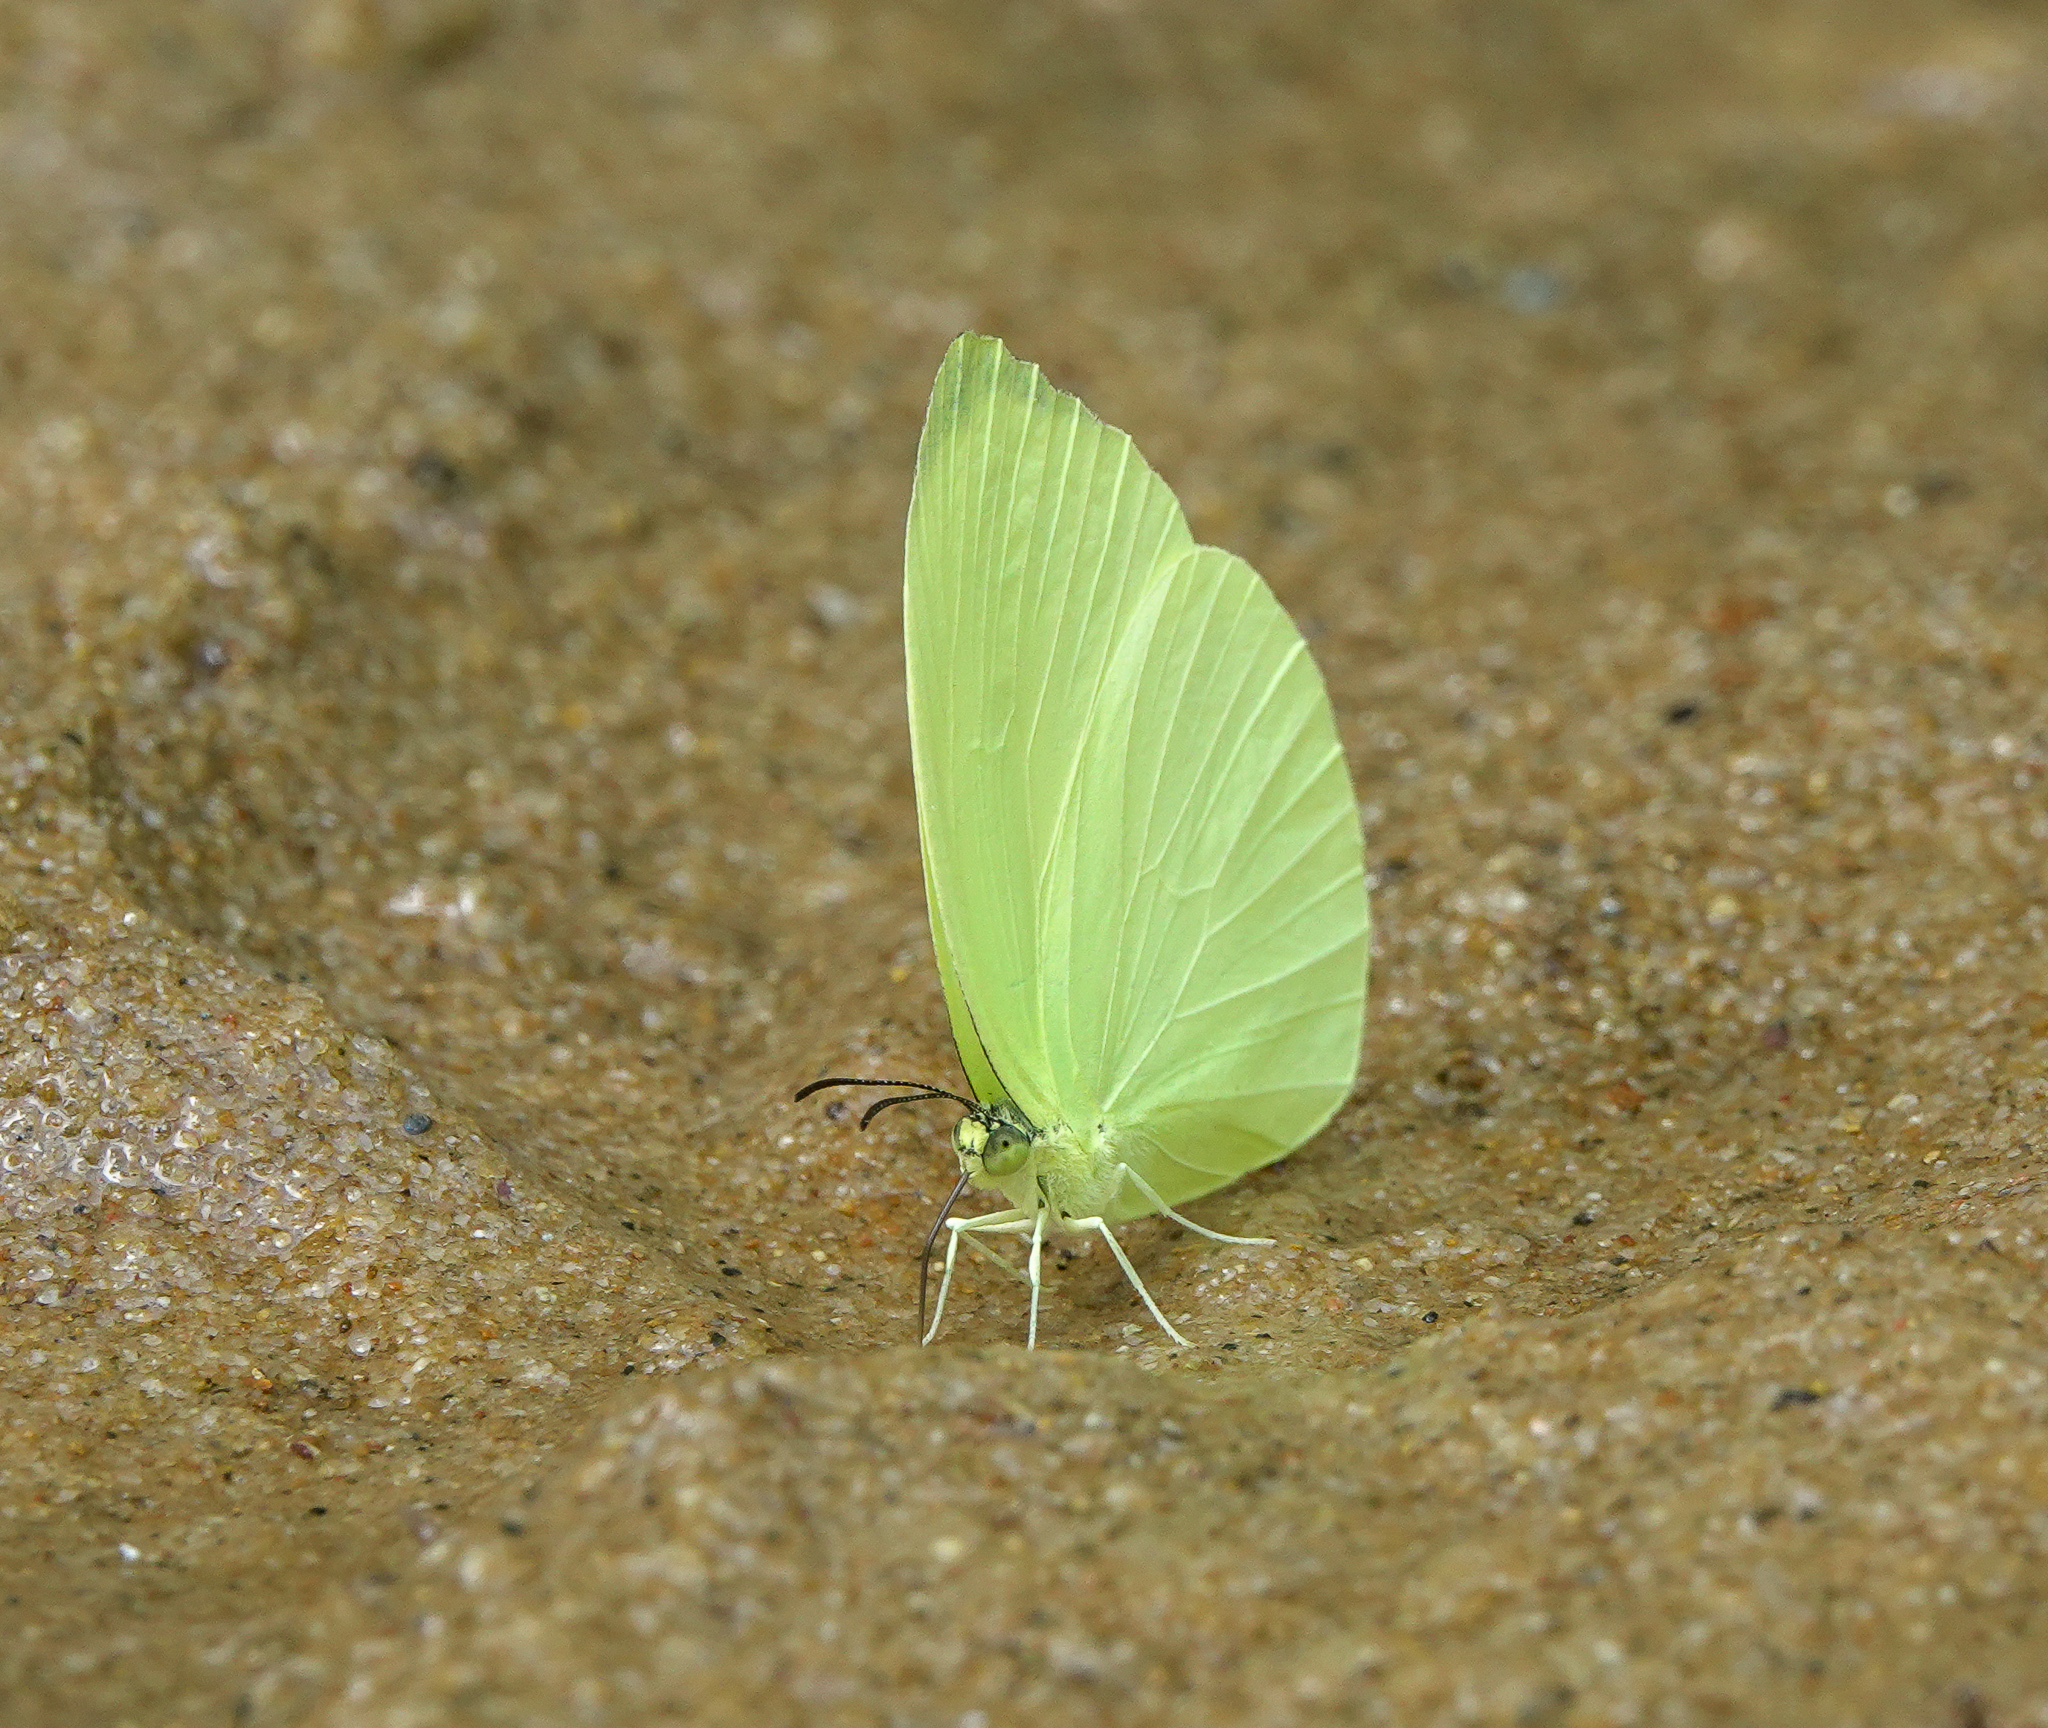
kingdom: Animalia
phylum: Arthropoda
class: Insecta
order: Lepidoptera
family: Pieridae
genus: Gandaca
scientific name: Gandaca harina
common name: Tree yellow
